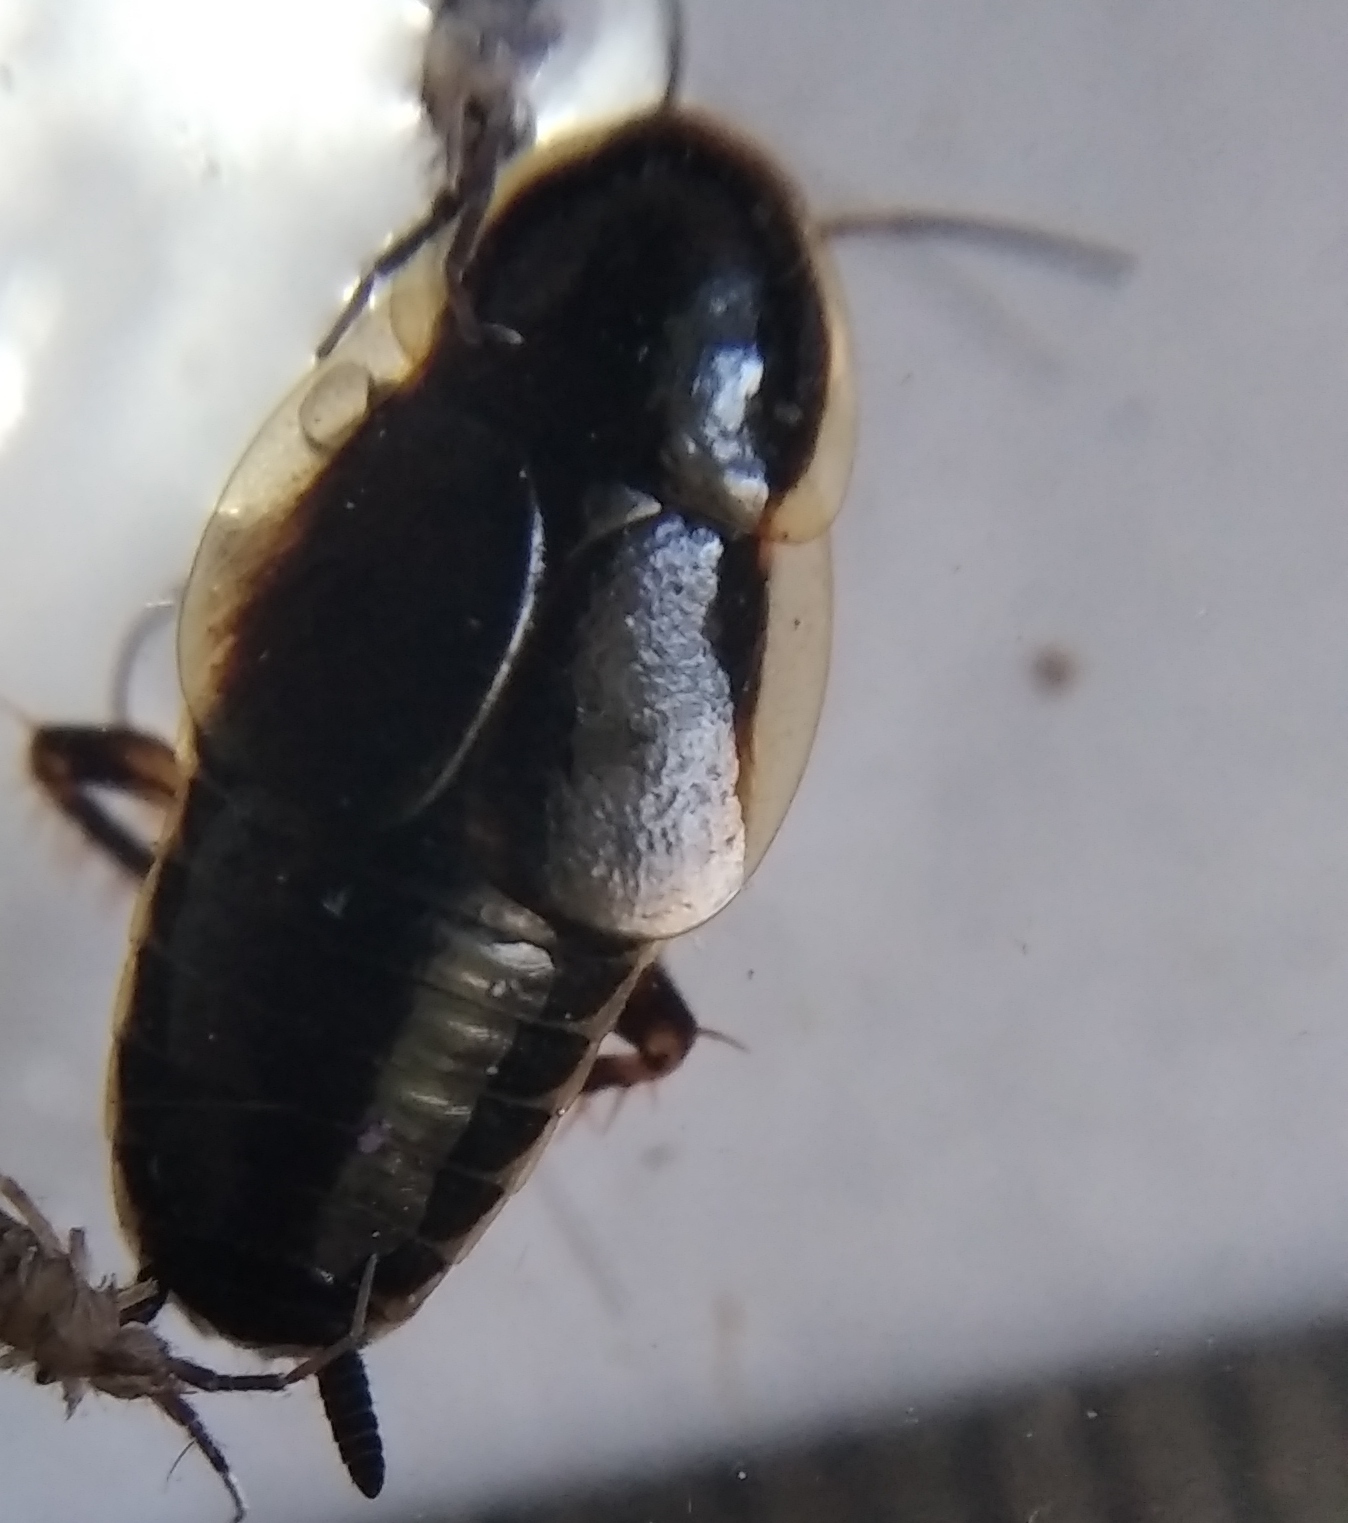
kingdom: Animalia
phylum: Arthropoda
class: Insecta
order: Blattodea
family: Ectobiidae
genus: Phyllodromica
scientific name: Phyllodromica maculata
